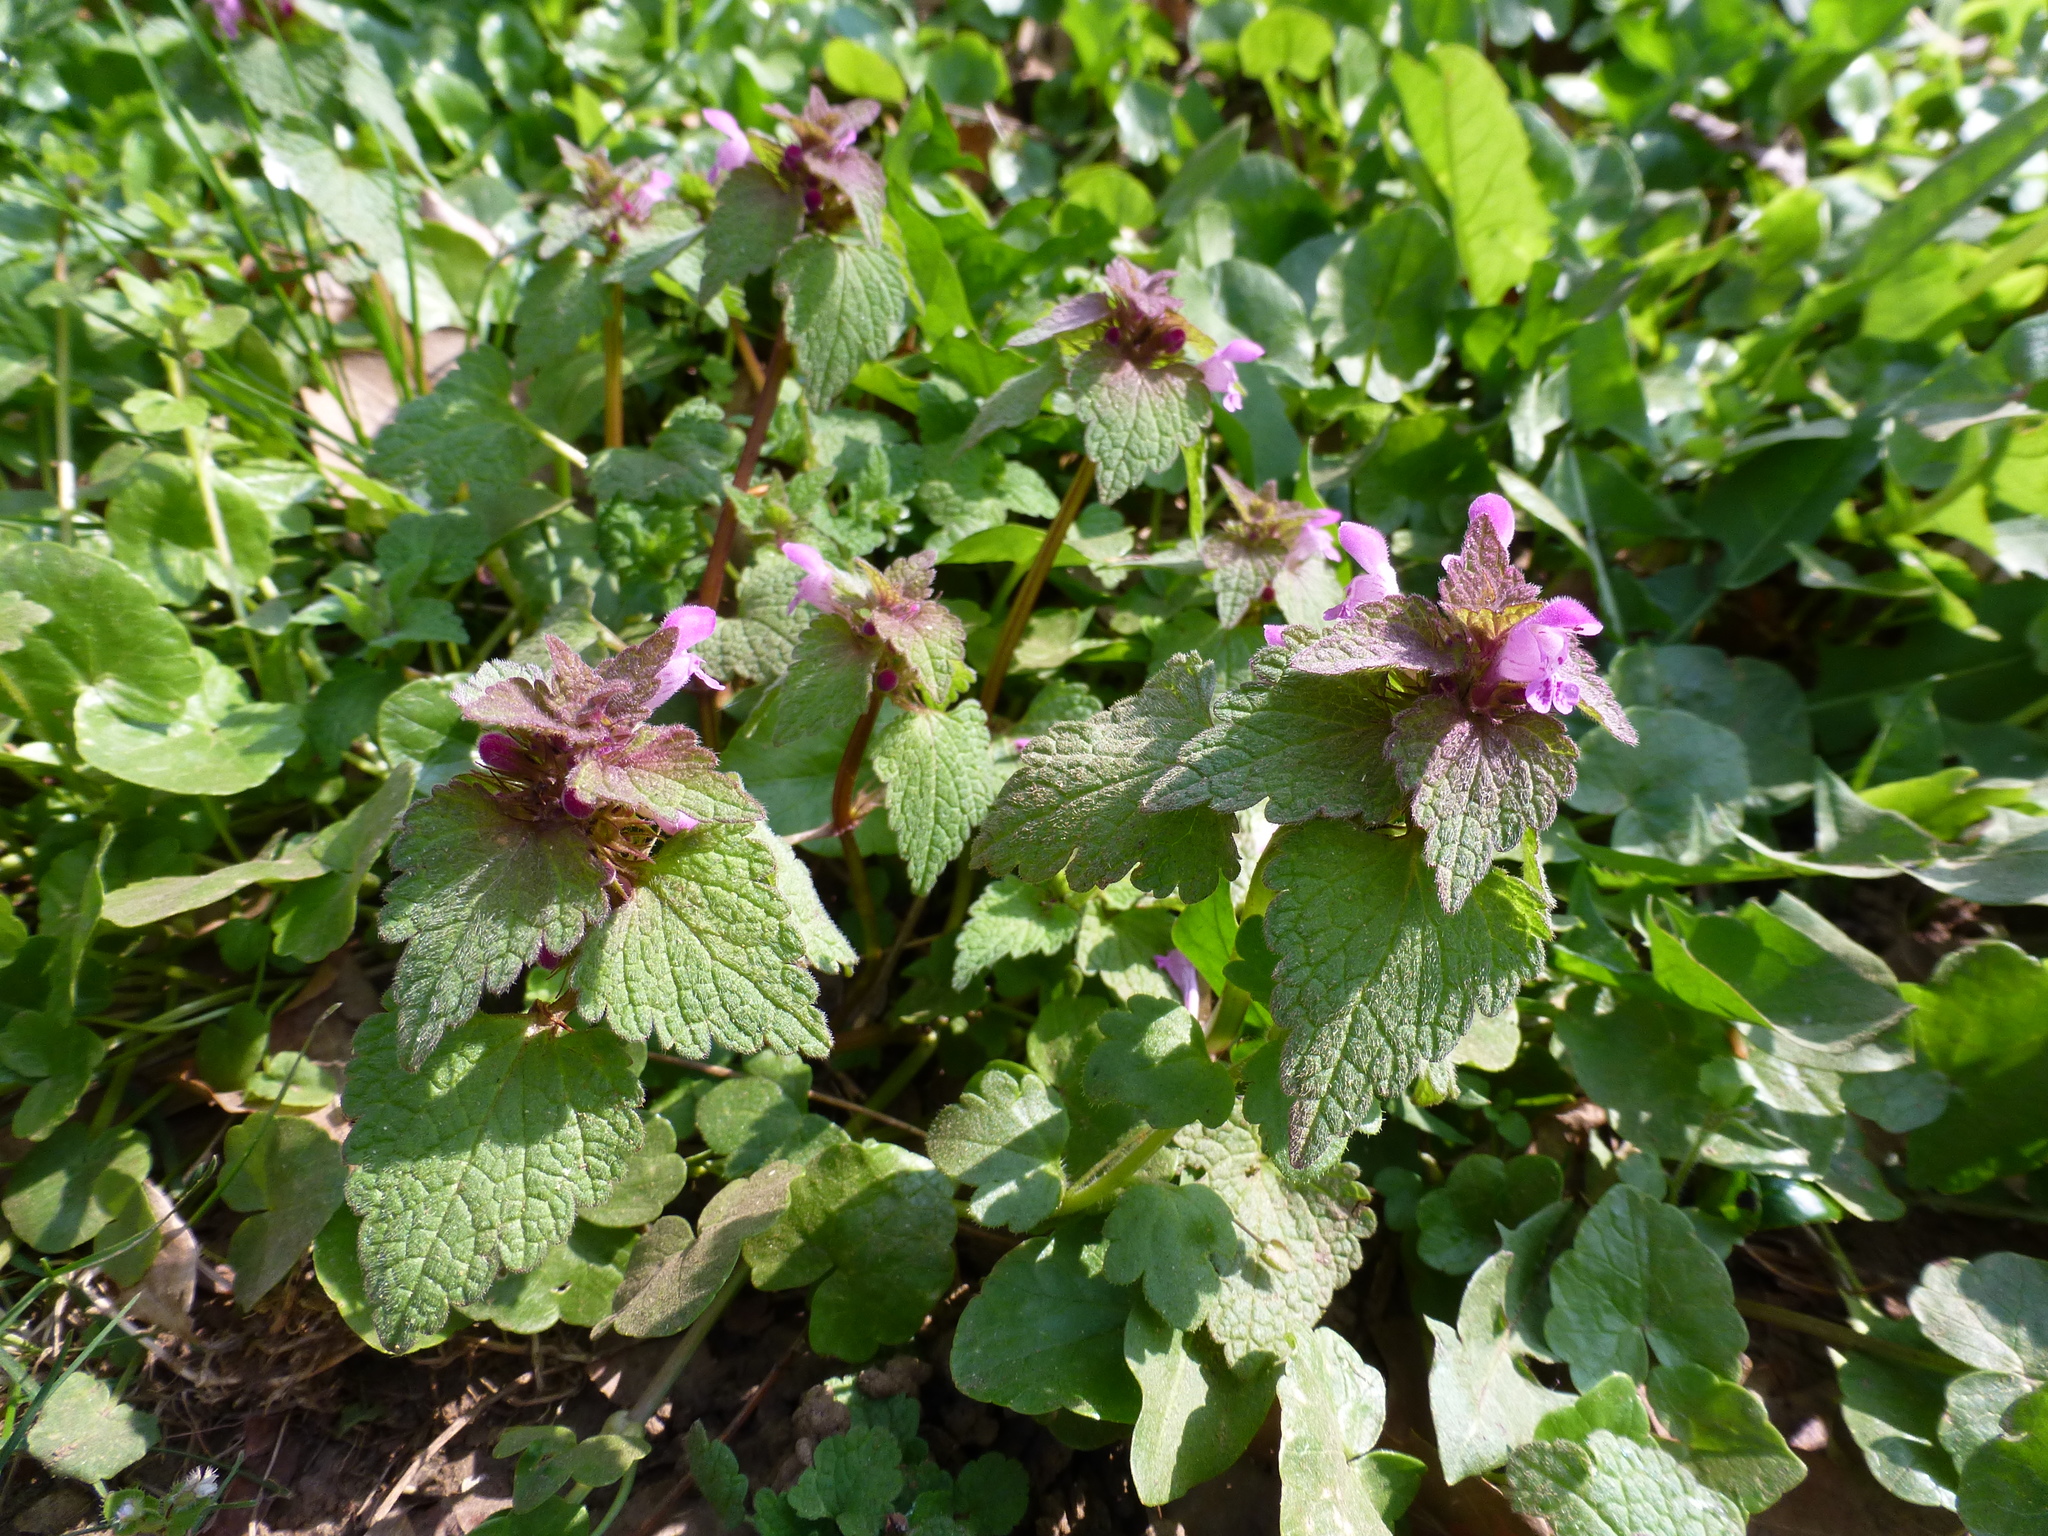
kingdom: Plantae
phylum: Tracheophyta
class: Magnoliopsida
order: Lamiales
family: Lamiaceae
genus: Lamium
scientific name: Lamium purpureum
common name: Red dead-nettle
